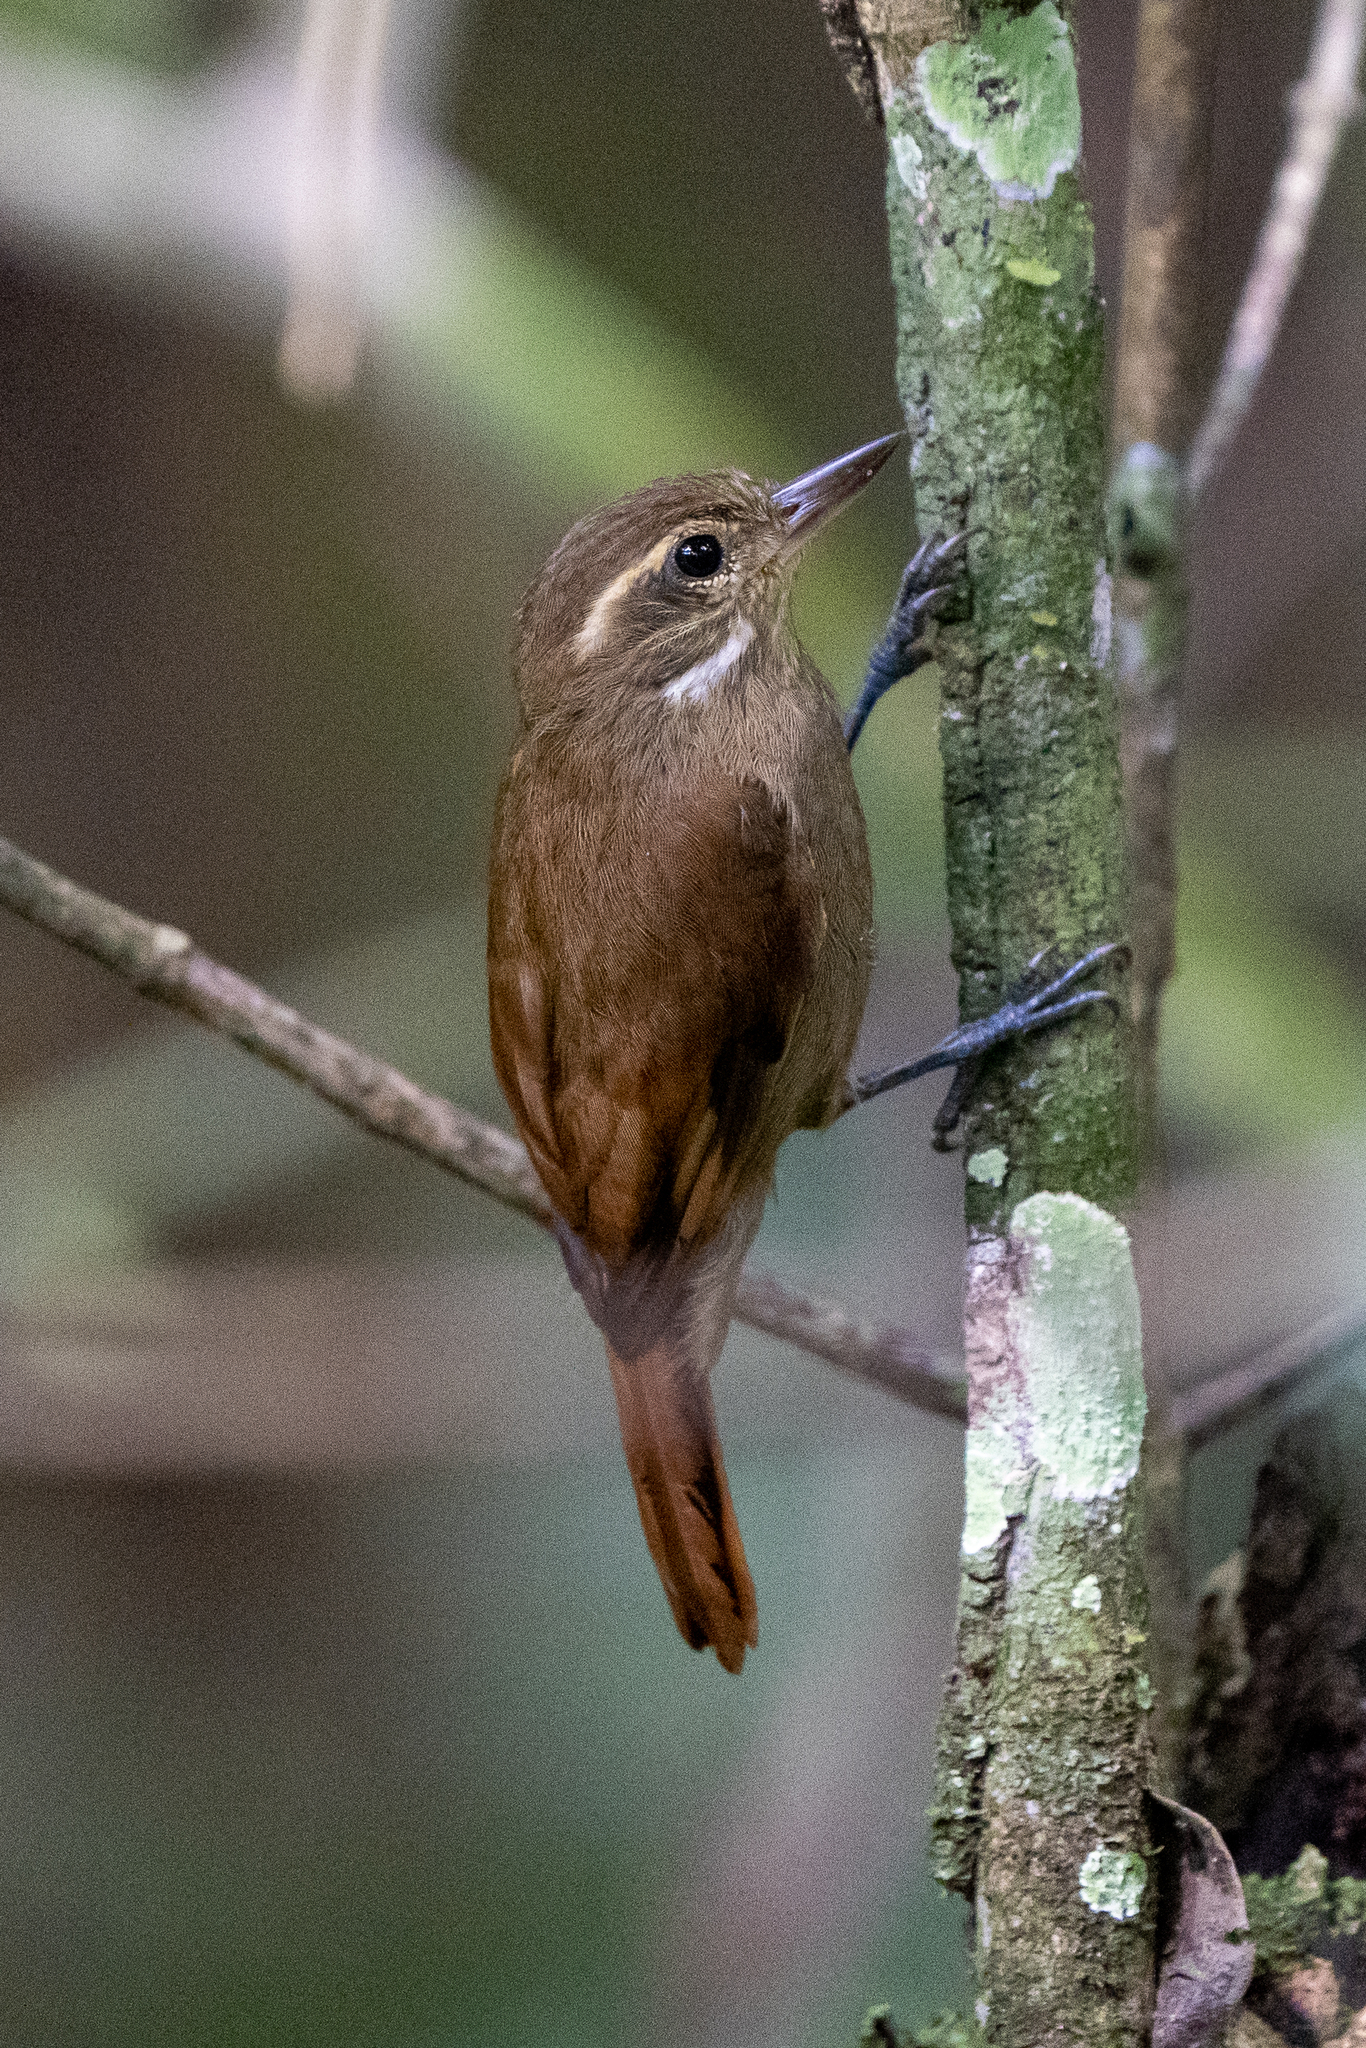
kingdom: Animalia
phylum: Chordata
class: Aves
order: Passeriformes
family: Furnariidae
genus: Xenops
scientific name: Xenops minutus
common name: Plain xenops
